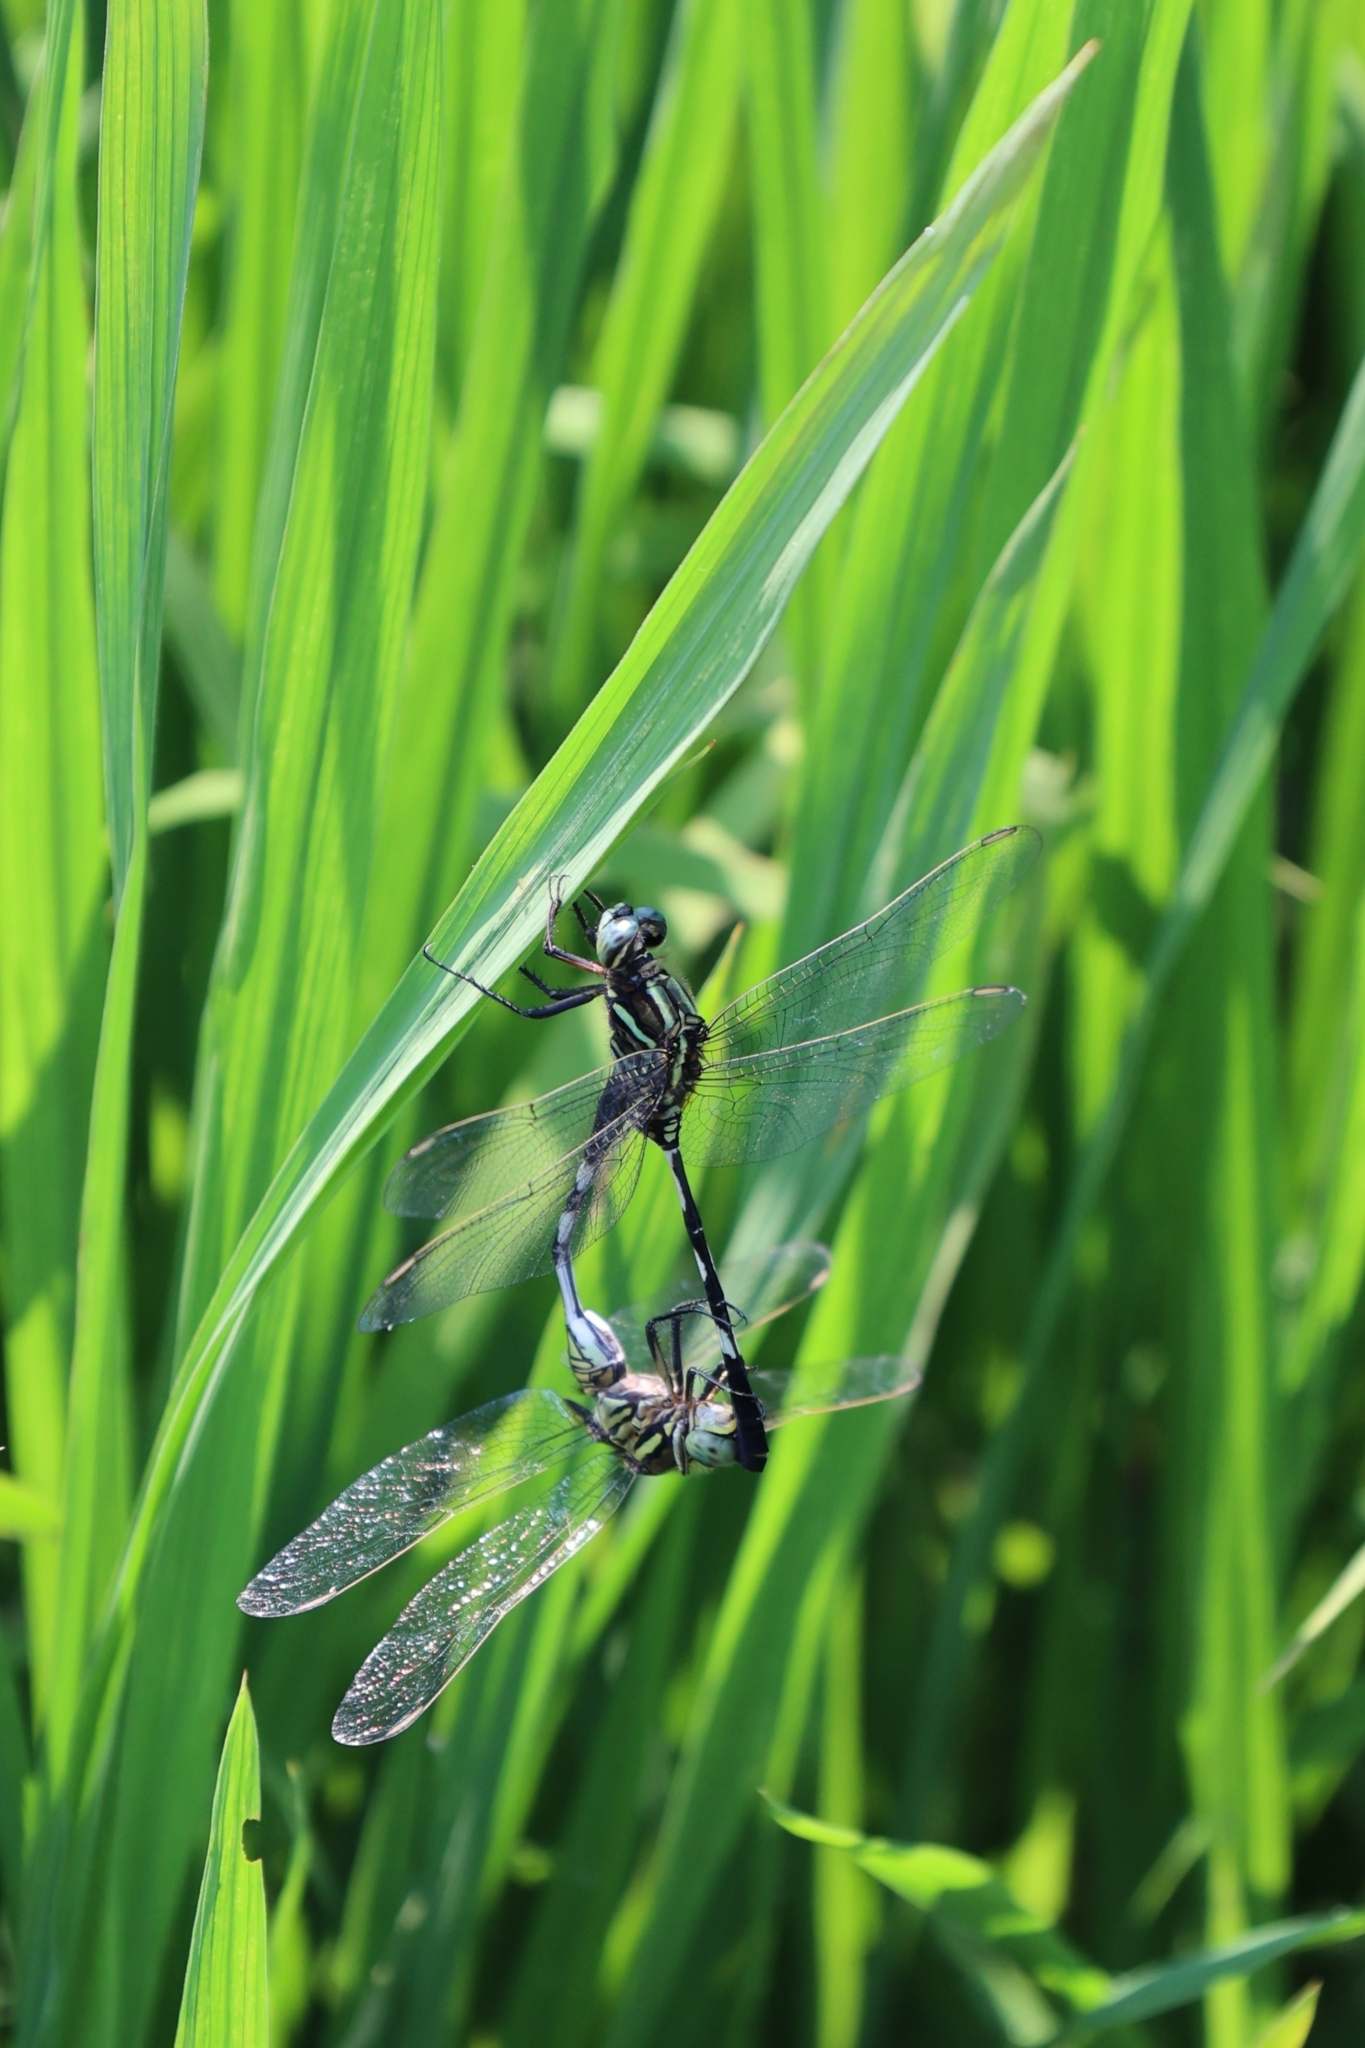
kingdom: Animalia
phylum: Arthropoda
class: Insecta
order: Odonata
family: Libellulidae
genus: Orthetrum
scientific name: Orthetrum sabina
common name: Slender skimmer
